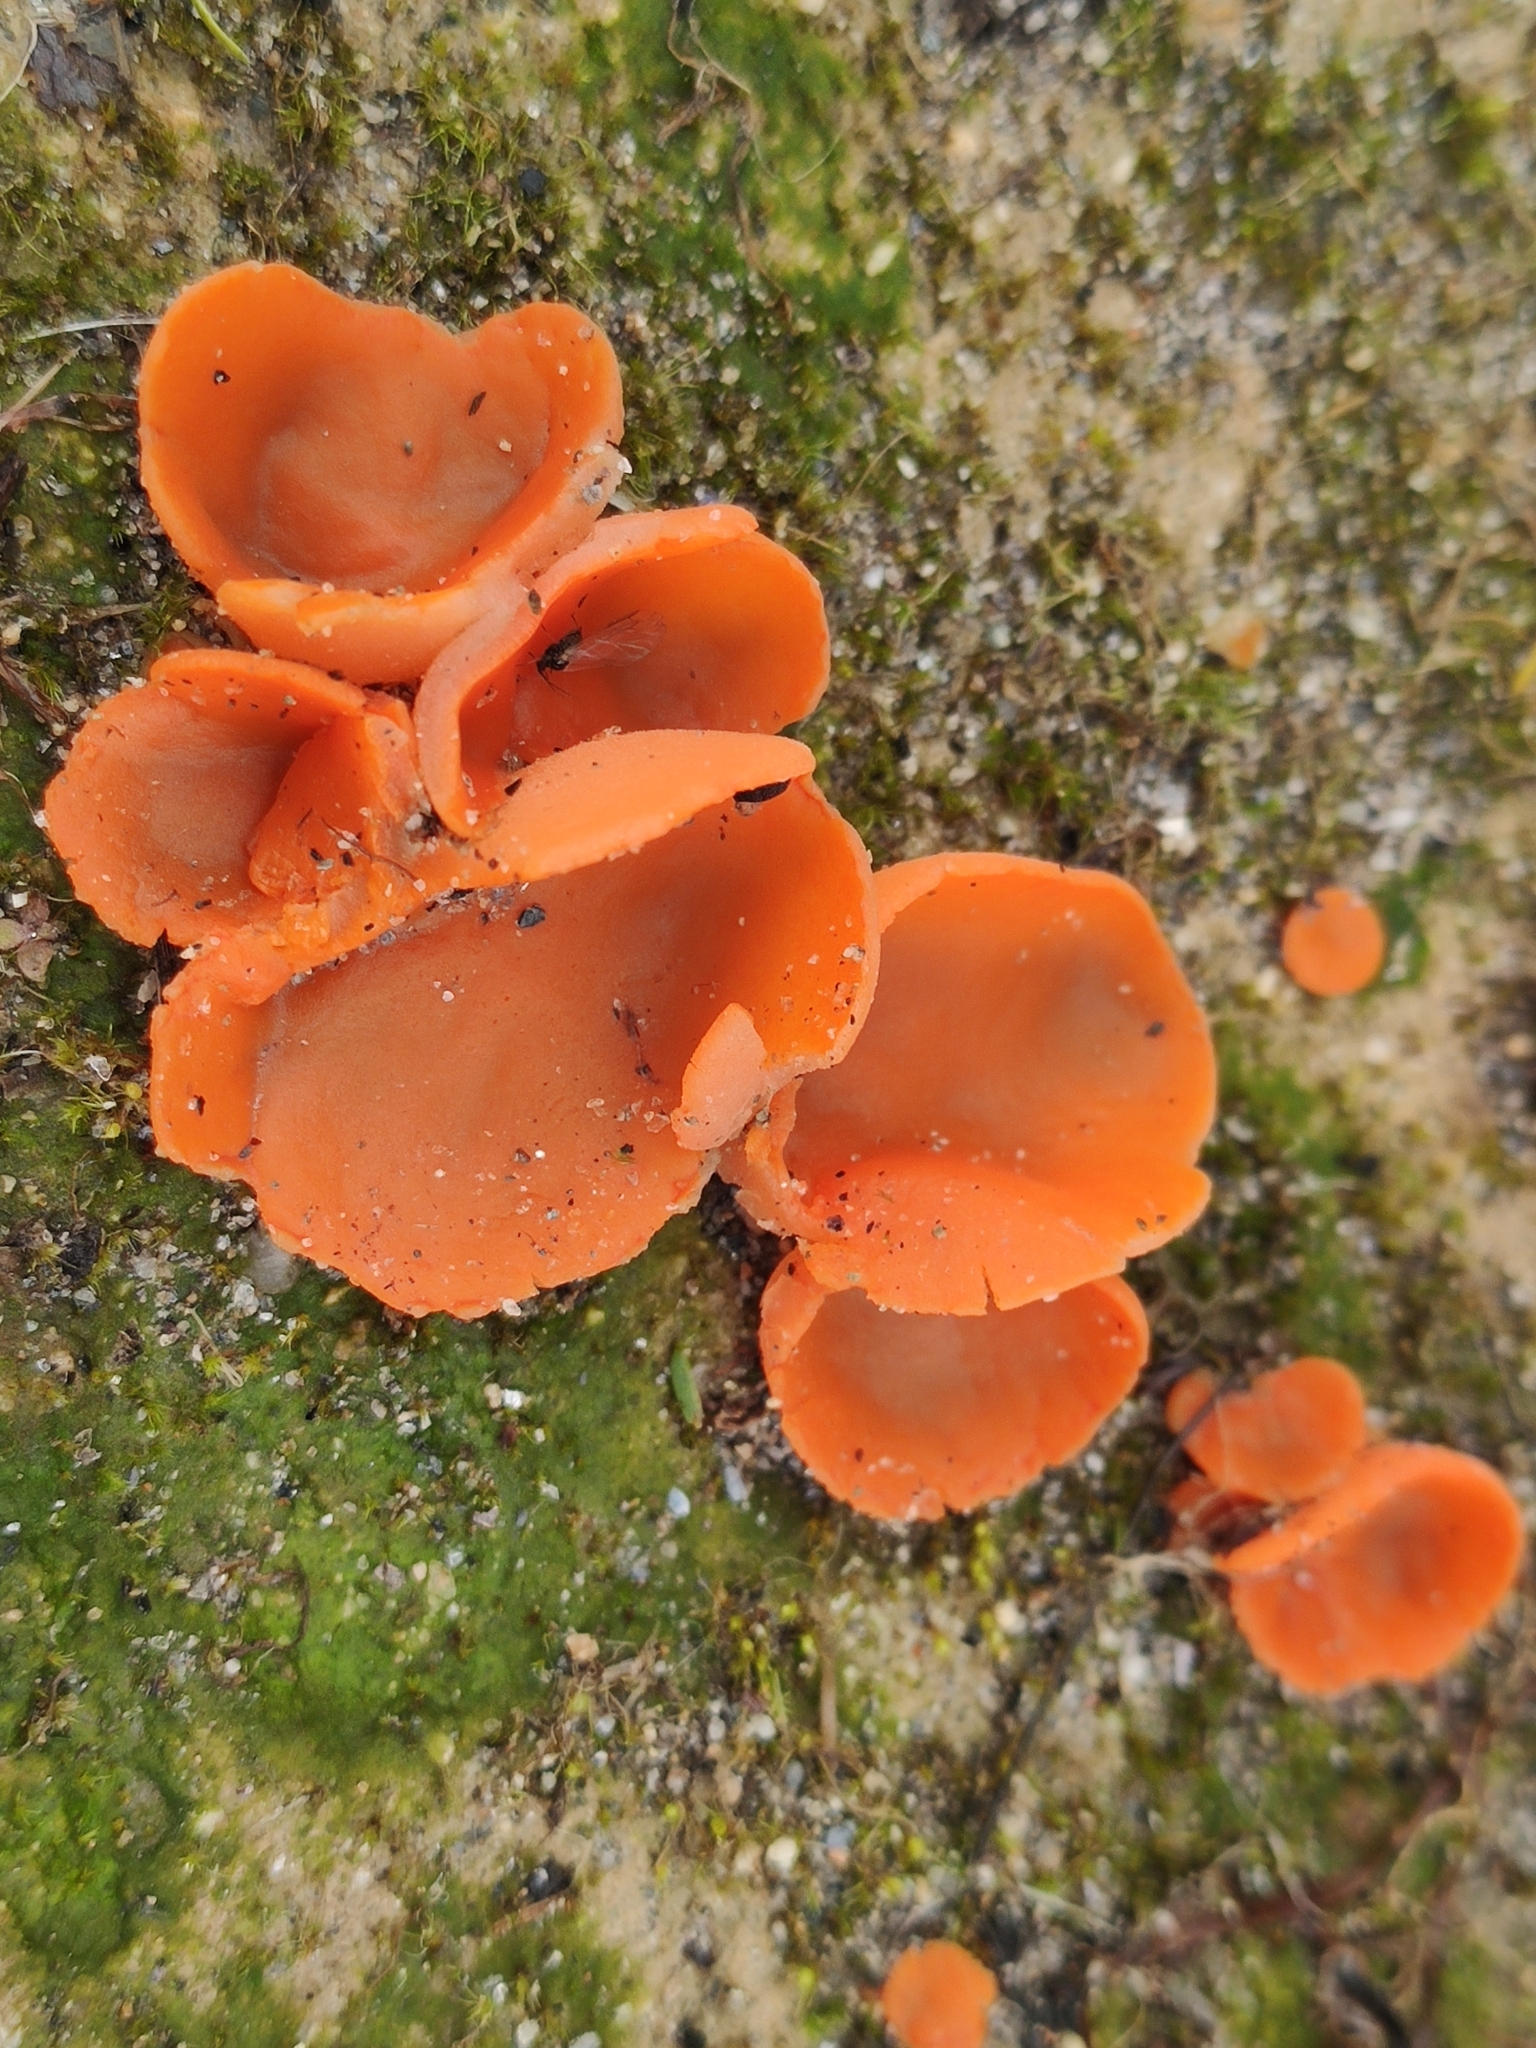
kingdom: Fungi
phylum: Ascomycota
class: Pezizomycetes
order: Pezizales
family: Pyronemataceae
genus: Aleuria
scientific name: Aleuria aurantia
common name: Orange peel fungus
